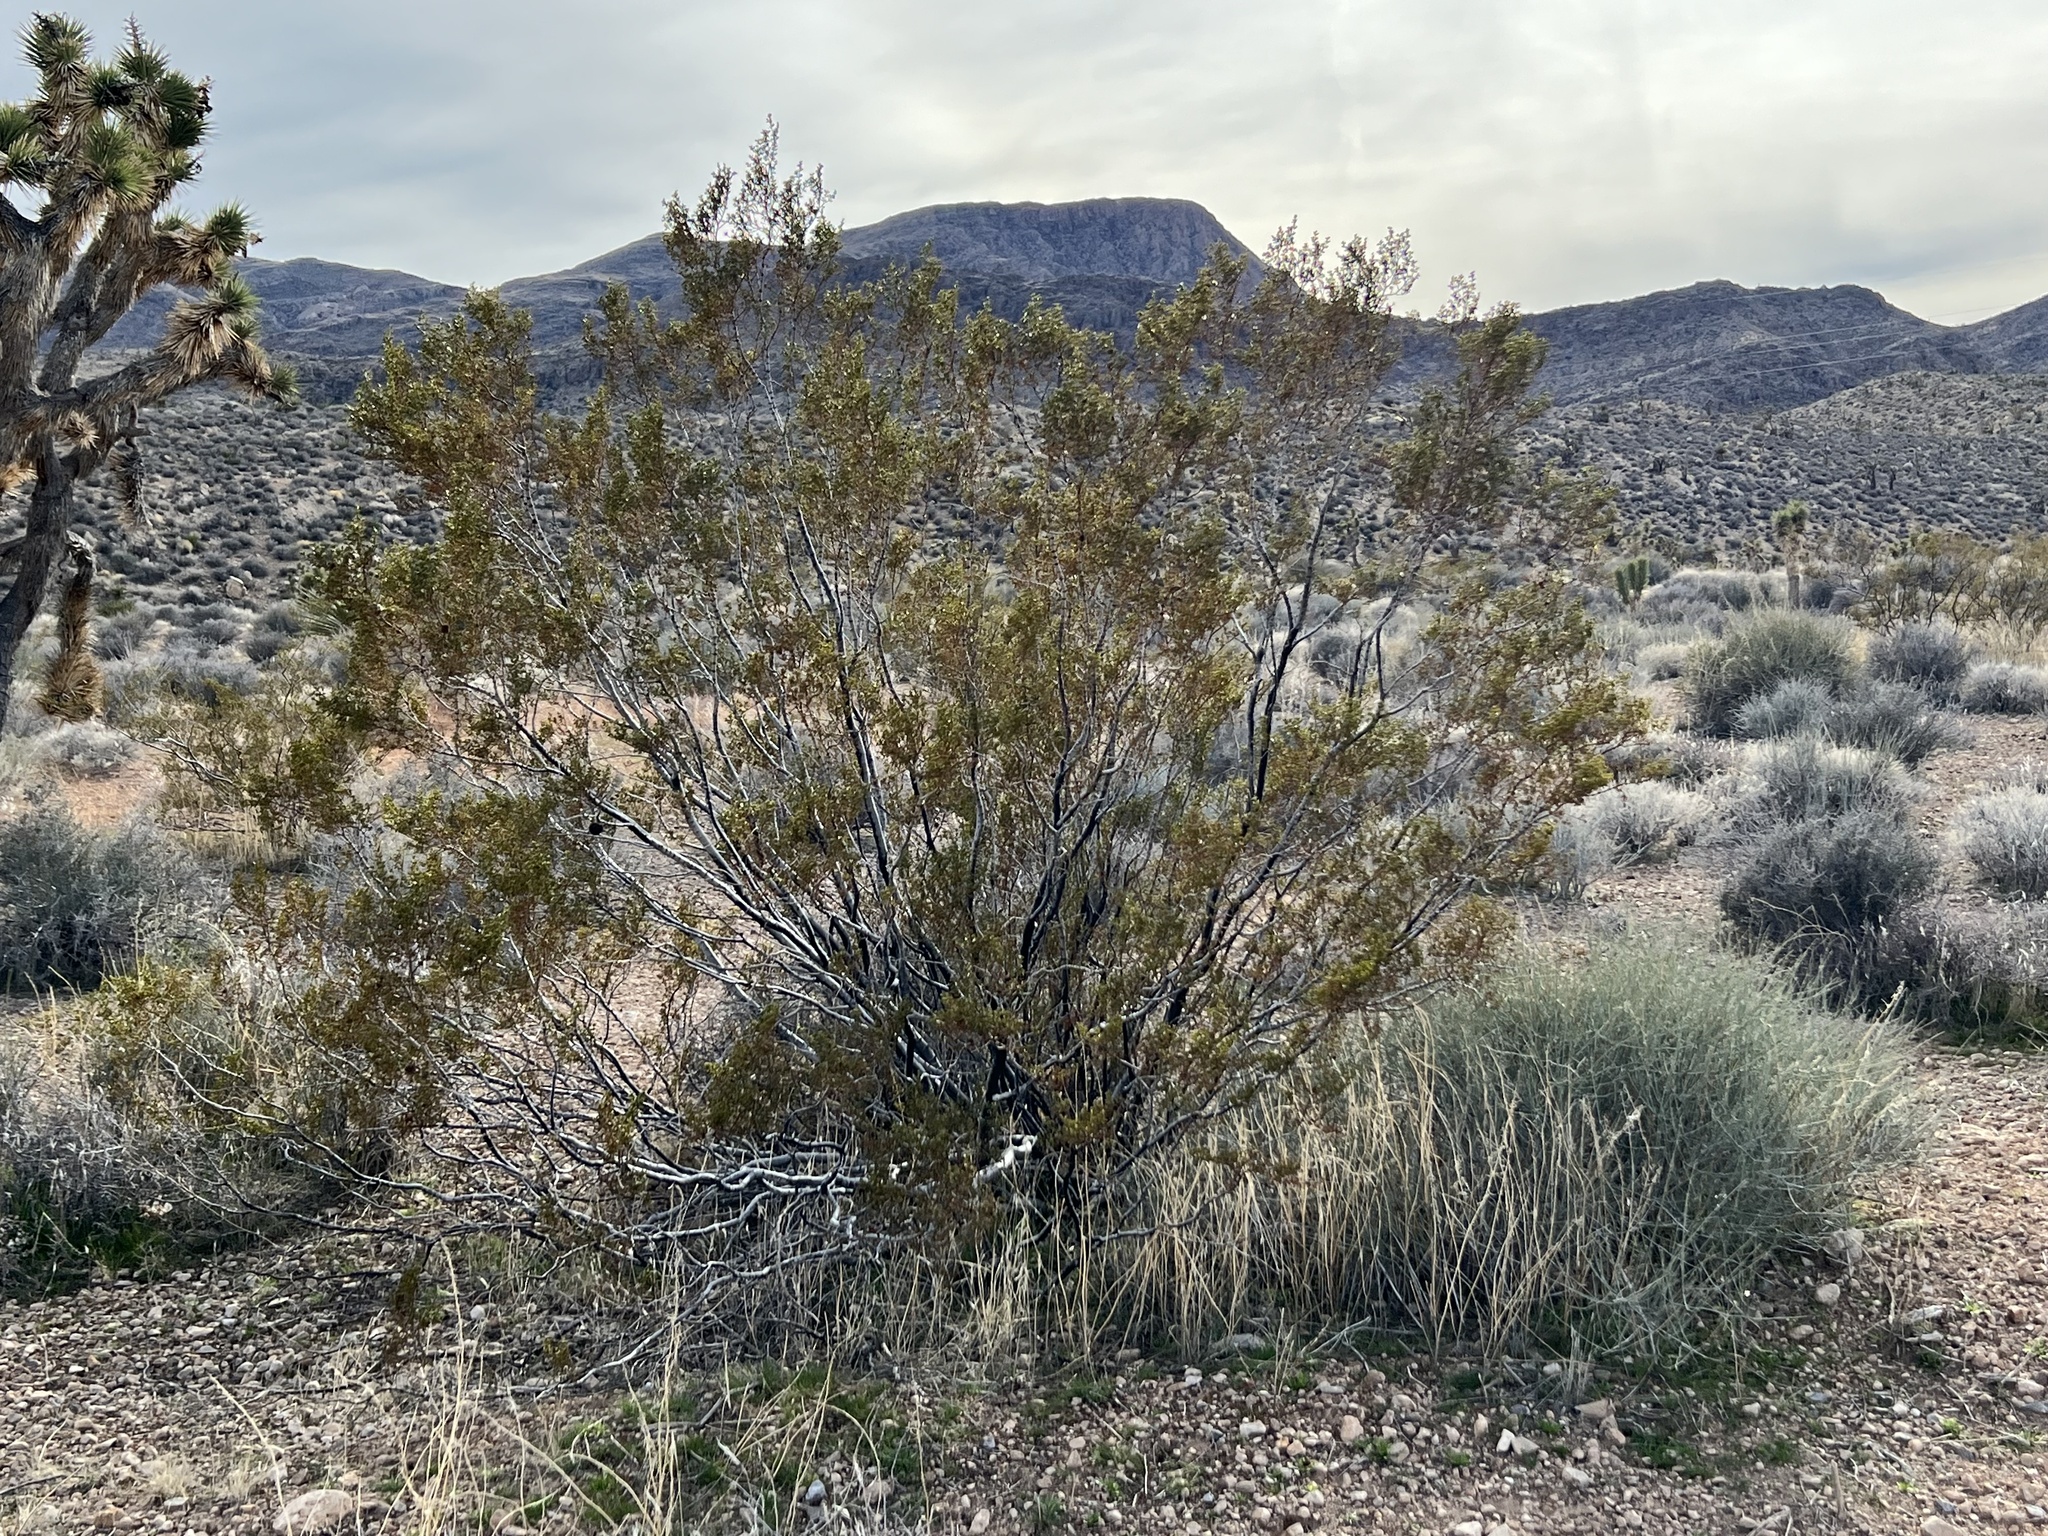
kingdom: Plantae
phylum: Tracheophyta
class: Magnoliopsida
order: Zygophyllales
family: Zygophyllaceae
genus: Larrea
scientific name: Larrea tridentata
